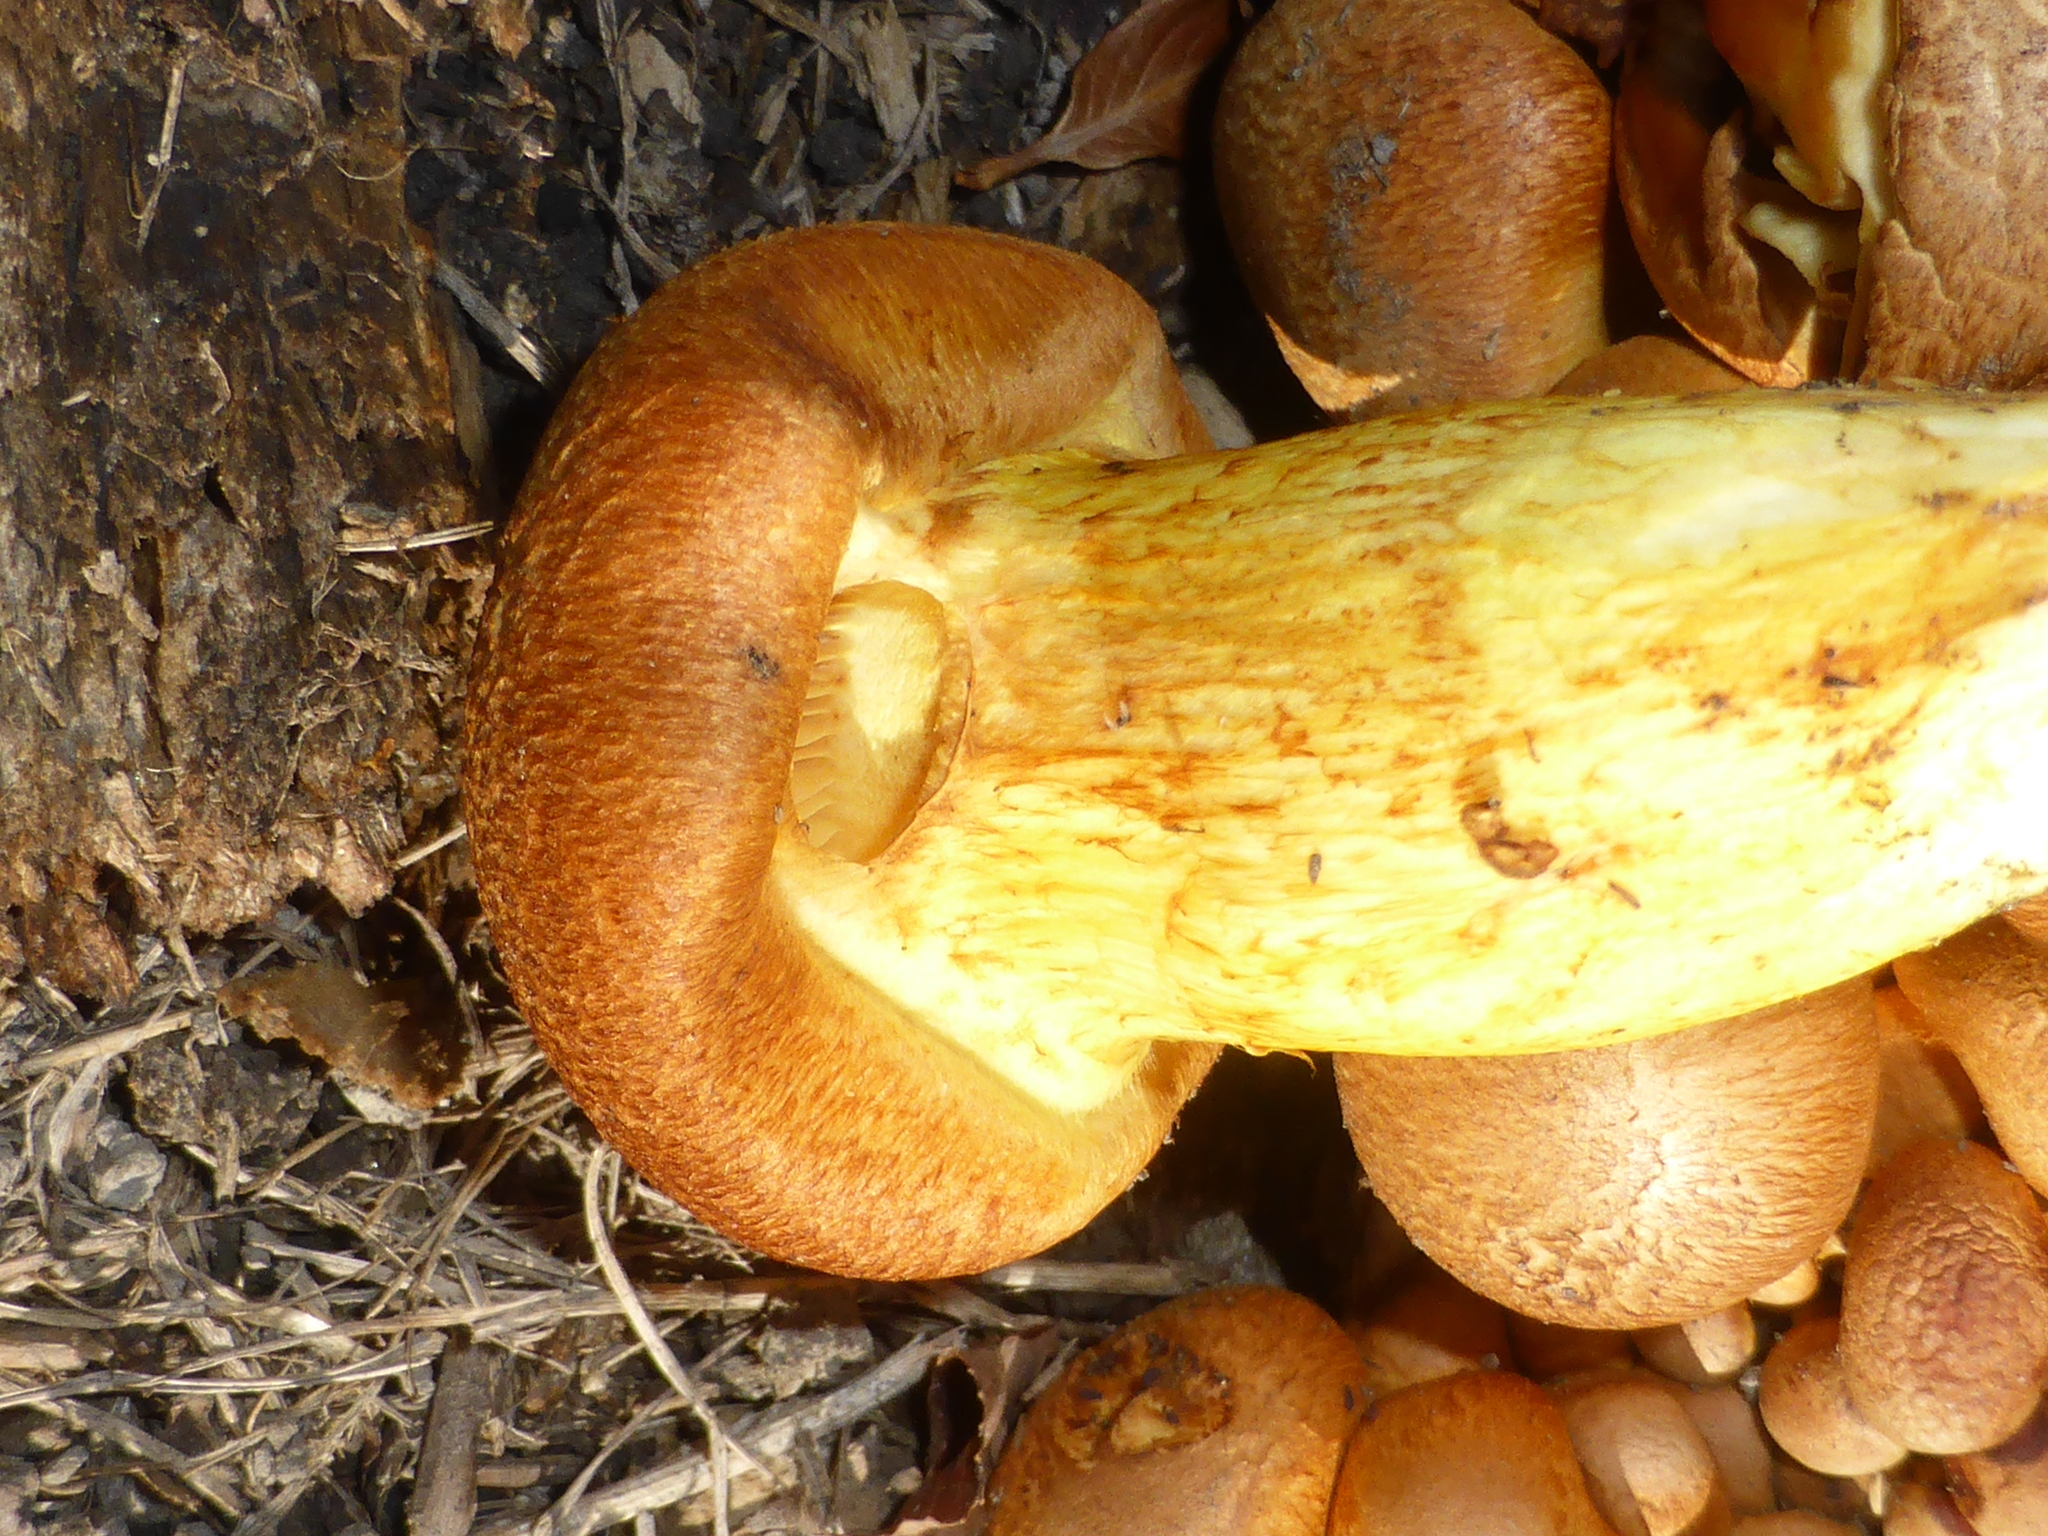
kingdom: Fungi
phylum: Basidiomycota
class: Agaricomycetes
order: Agaricales
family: Hymenogastraceae
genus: Gymnopilus
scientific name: Gymnopilus junonius
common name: Spectacular rustgill
